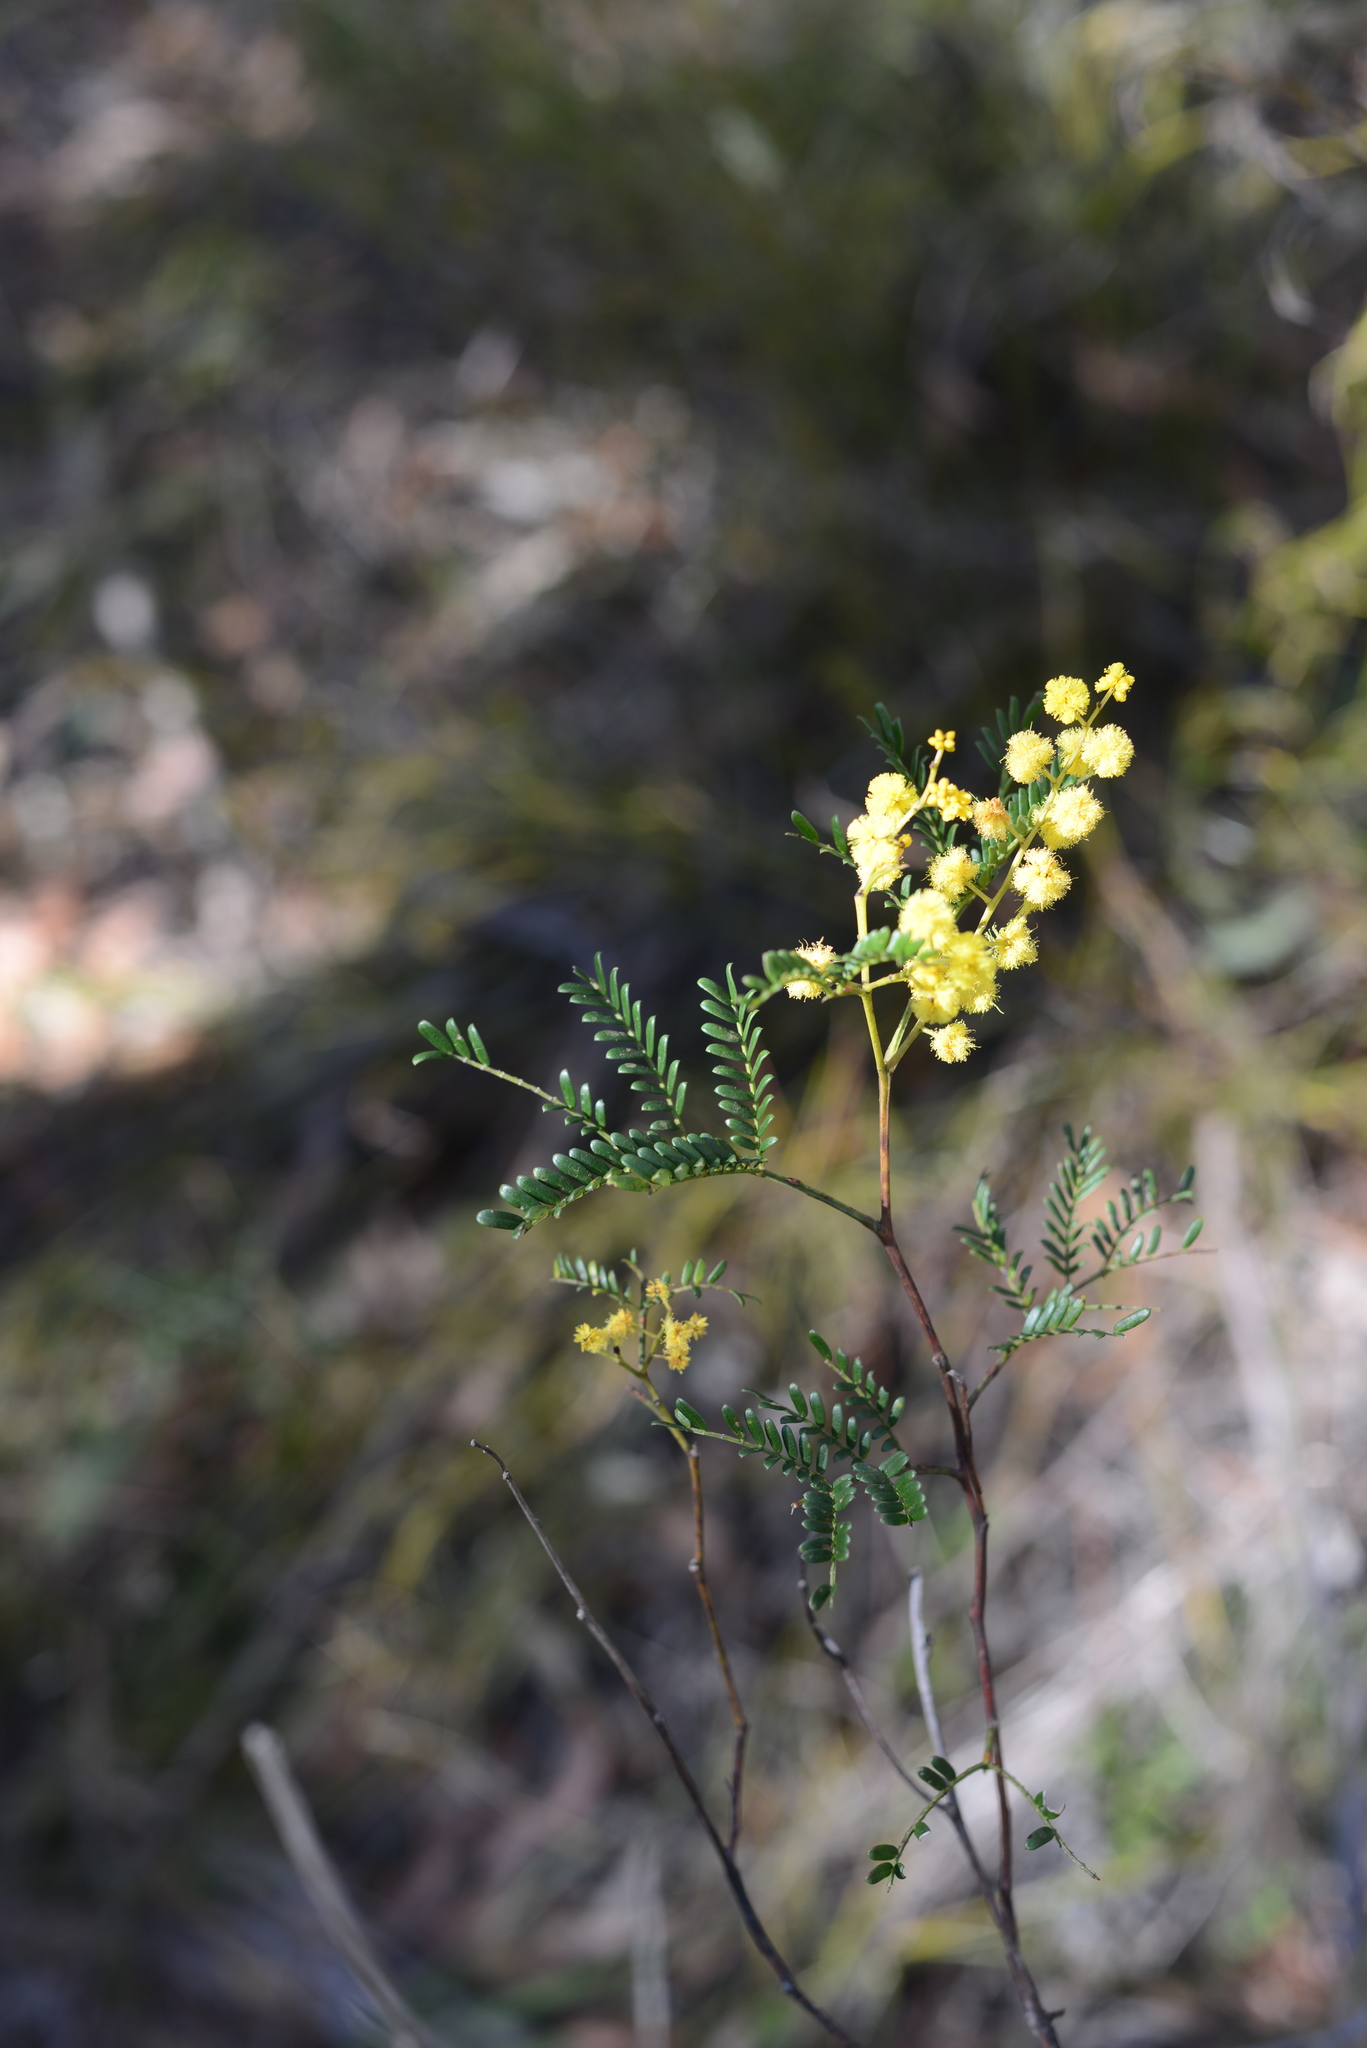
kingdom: Plantae
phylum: Tracheophyta
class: Magnoliopsida
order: Fabales
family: Fabaceae
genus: Acacia
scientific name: Acacia terminalis
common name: Cedar wattle
